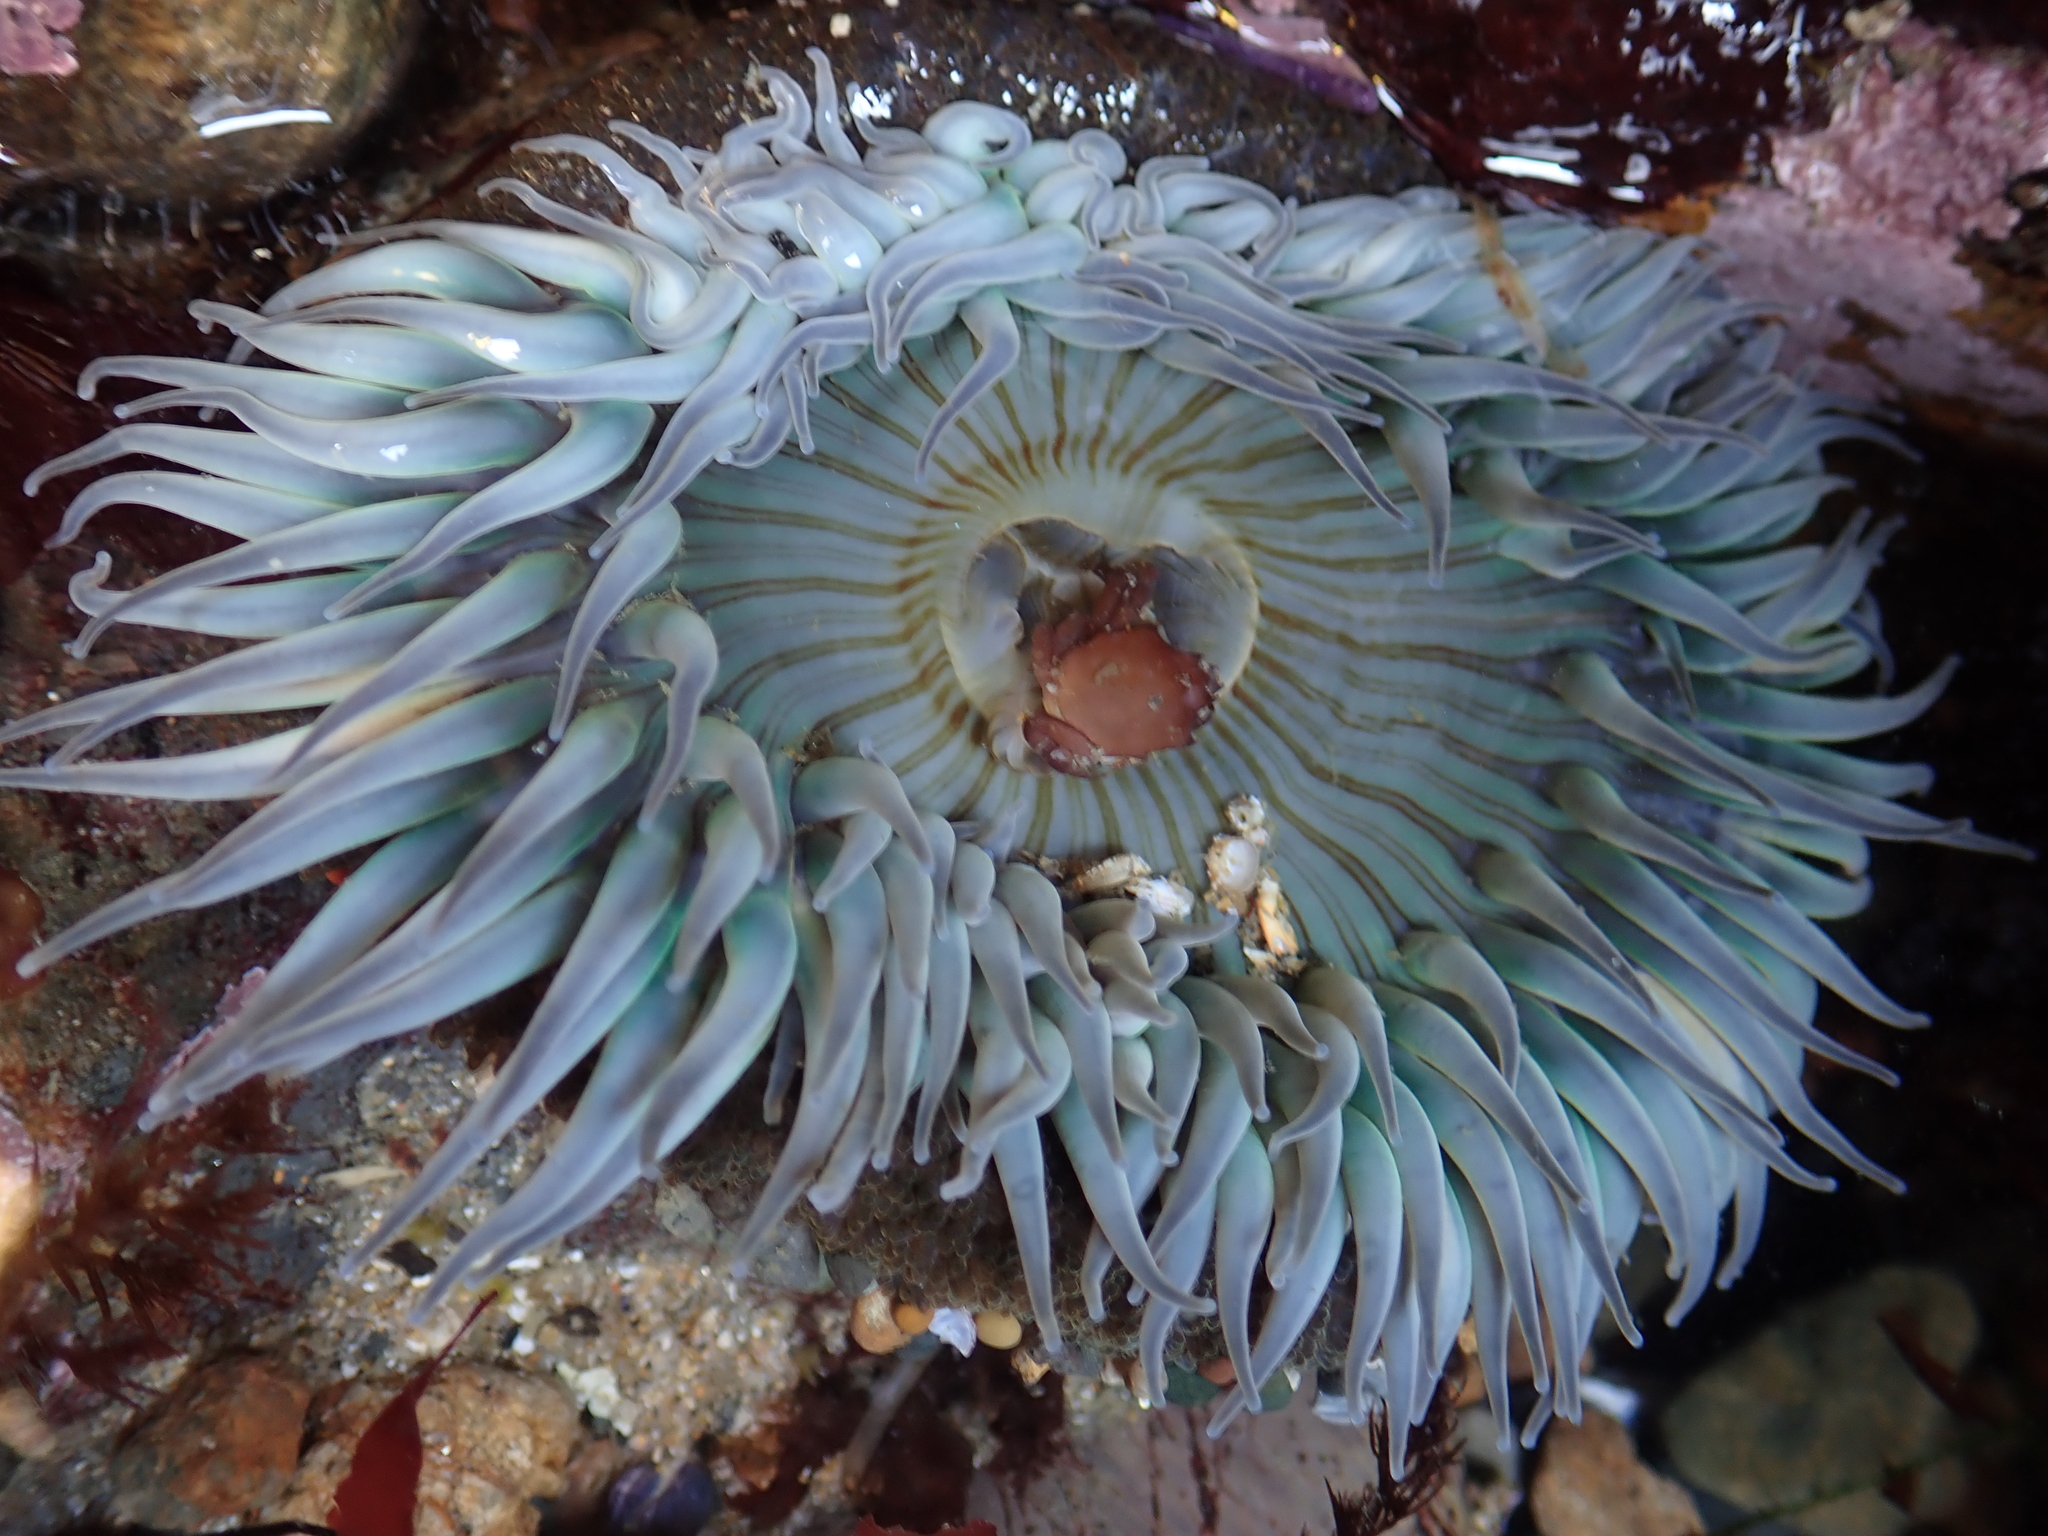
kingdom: Animalia
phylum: Cnidaria
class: Anthozoa
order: Actiniaria
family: Actiniidae
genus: Anthopleura
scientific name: Anthopleura sola
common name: Sun anemone
